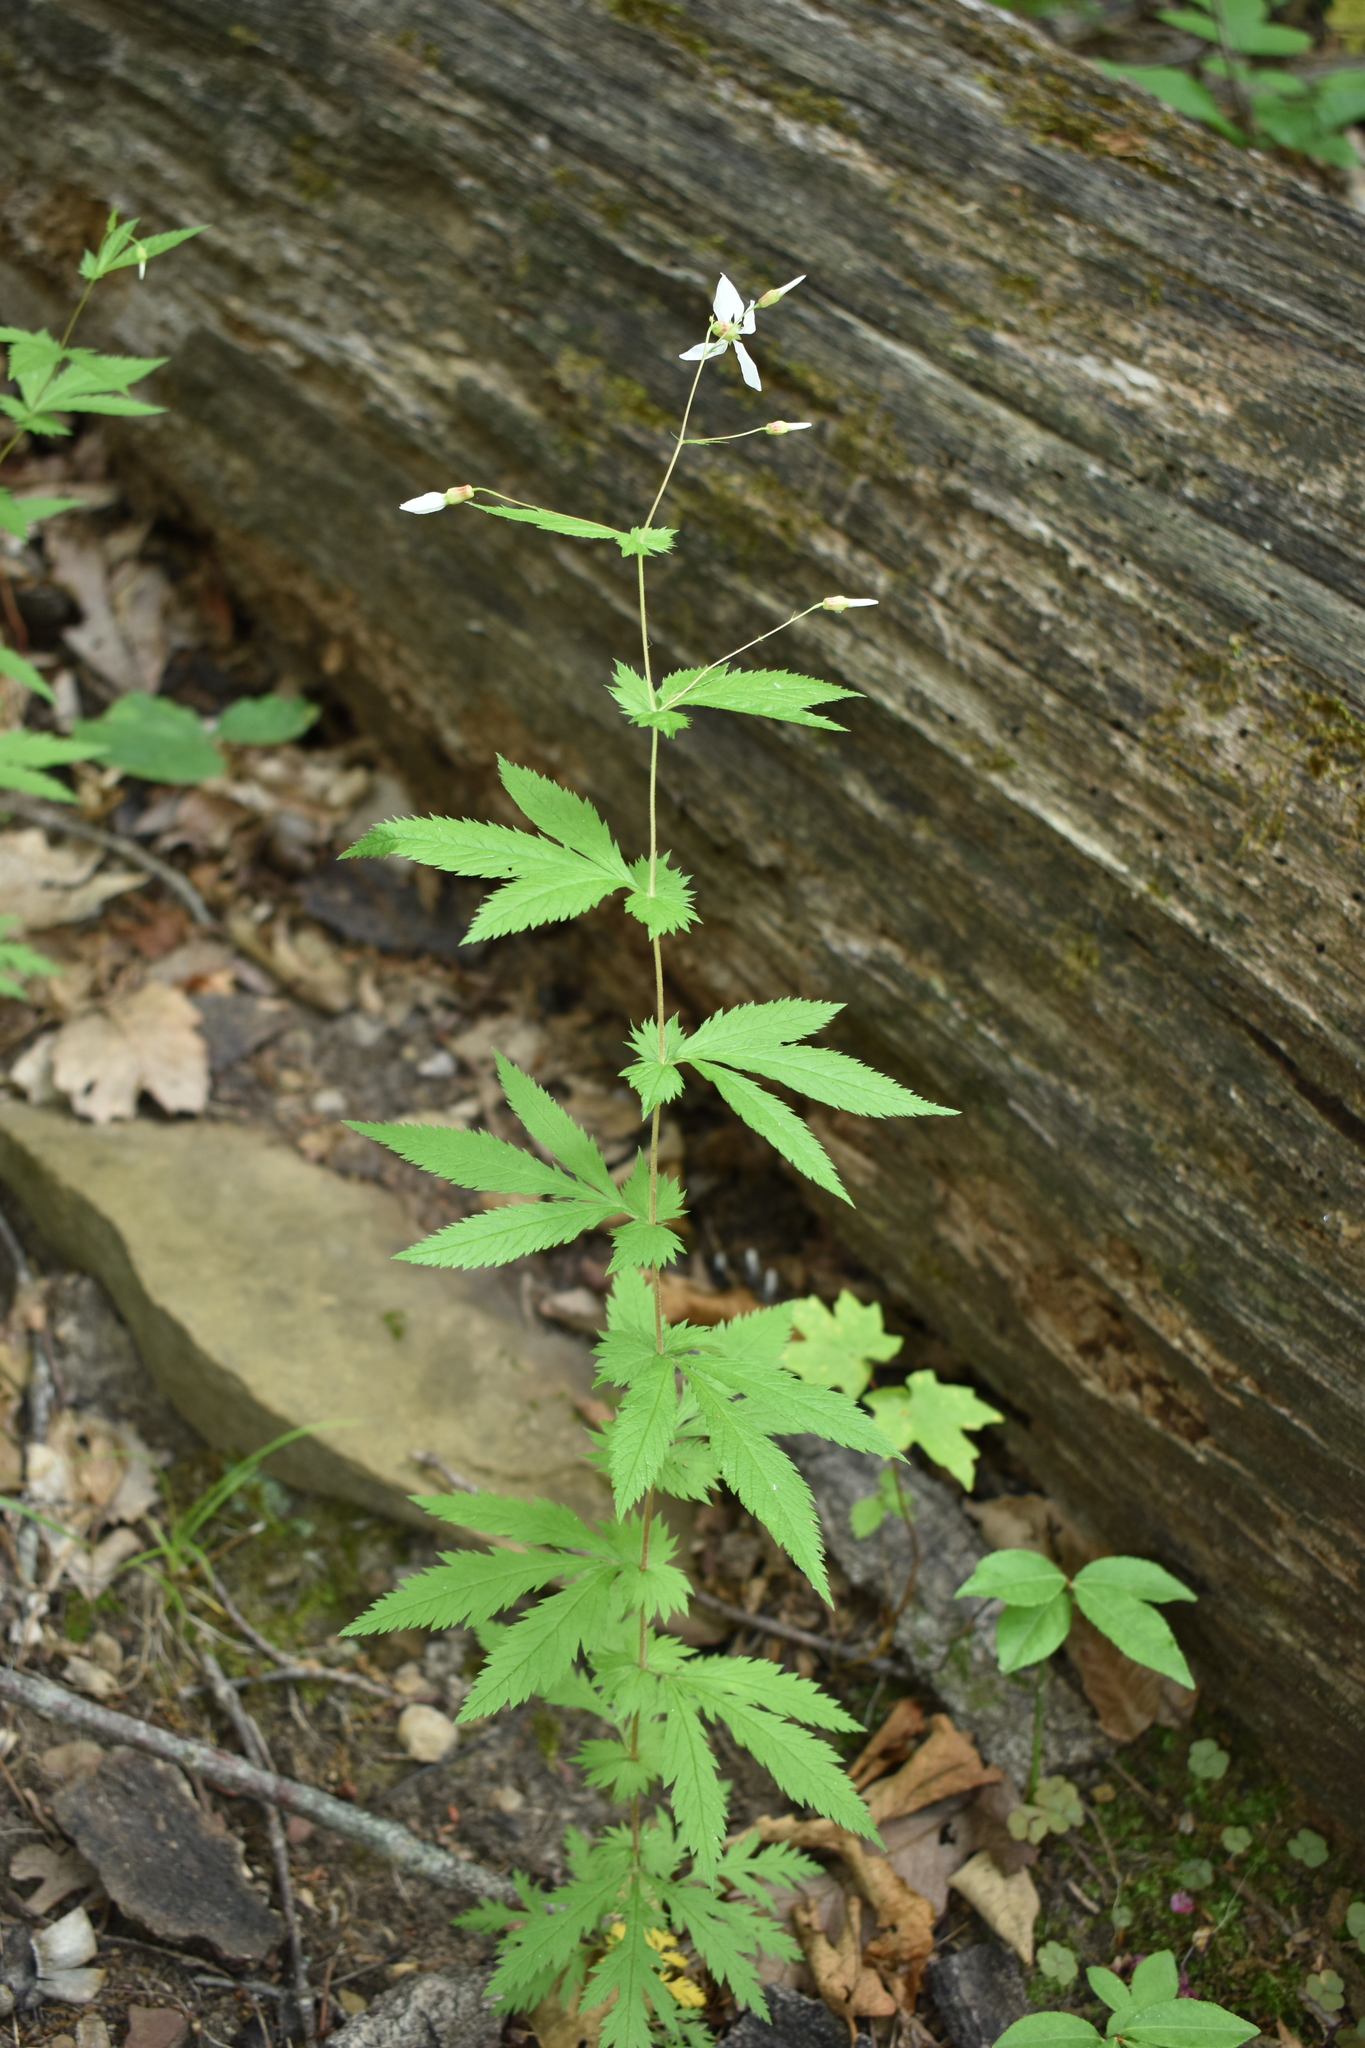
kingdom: Plantae
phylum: Tracheophyta
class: Magnoliopsida
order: Rosales
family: Rosaceae
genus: Gillenia
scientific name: Gillenia stipulata
